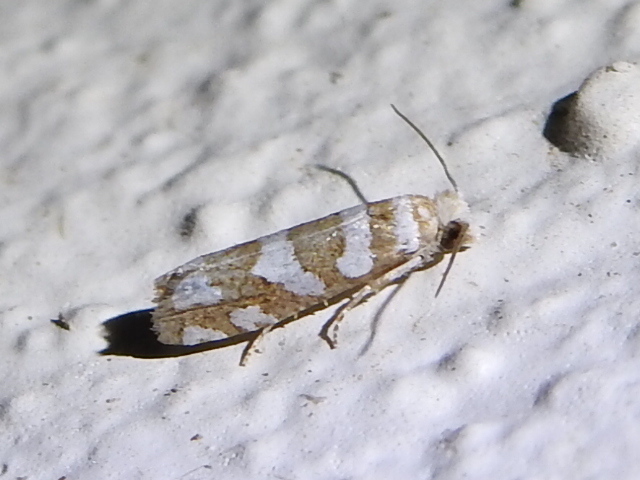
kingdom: Animalia
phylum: Arthropoda
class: Insecta
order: Lepidoptera
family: Tortricidae
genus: Pelochrista
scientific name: Pelochrista robinsonana
